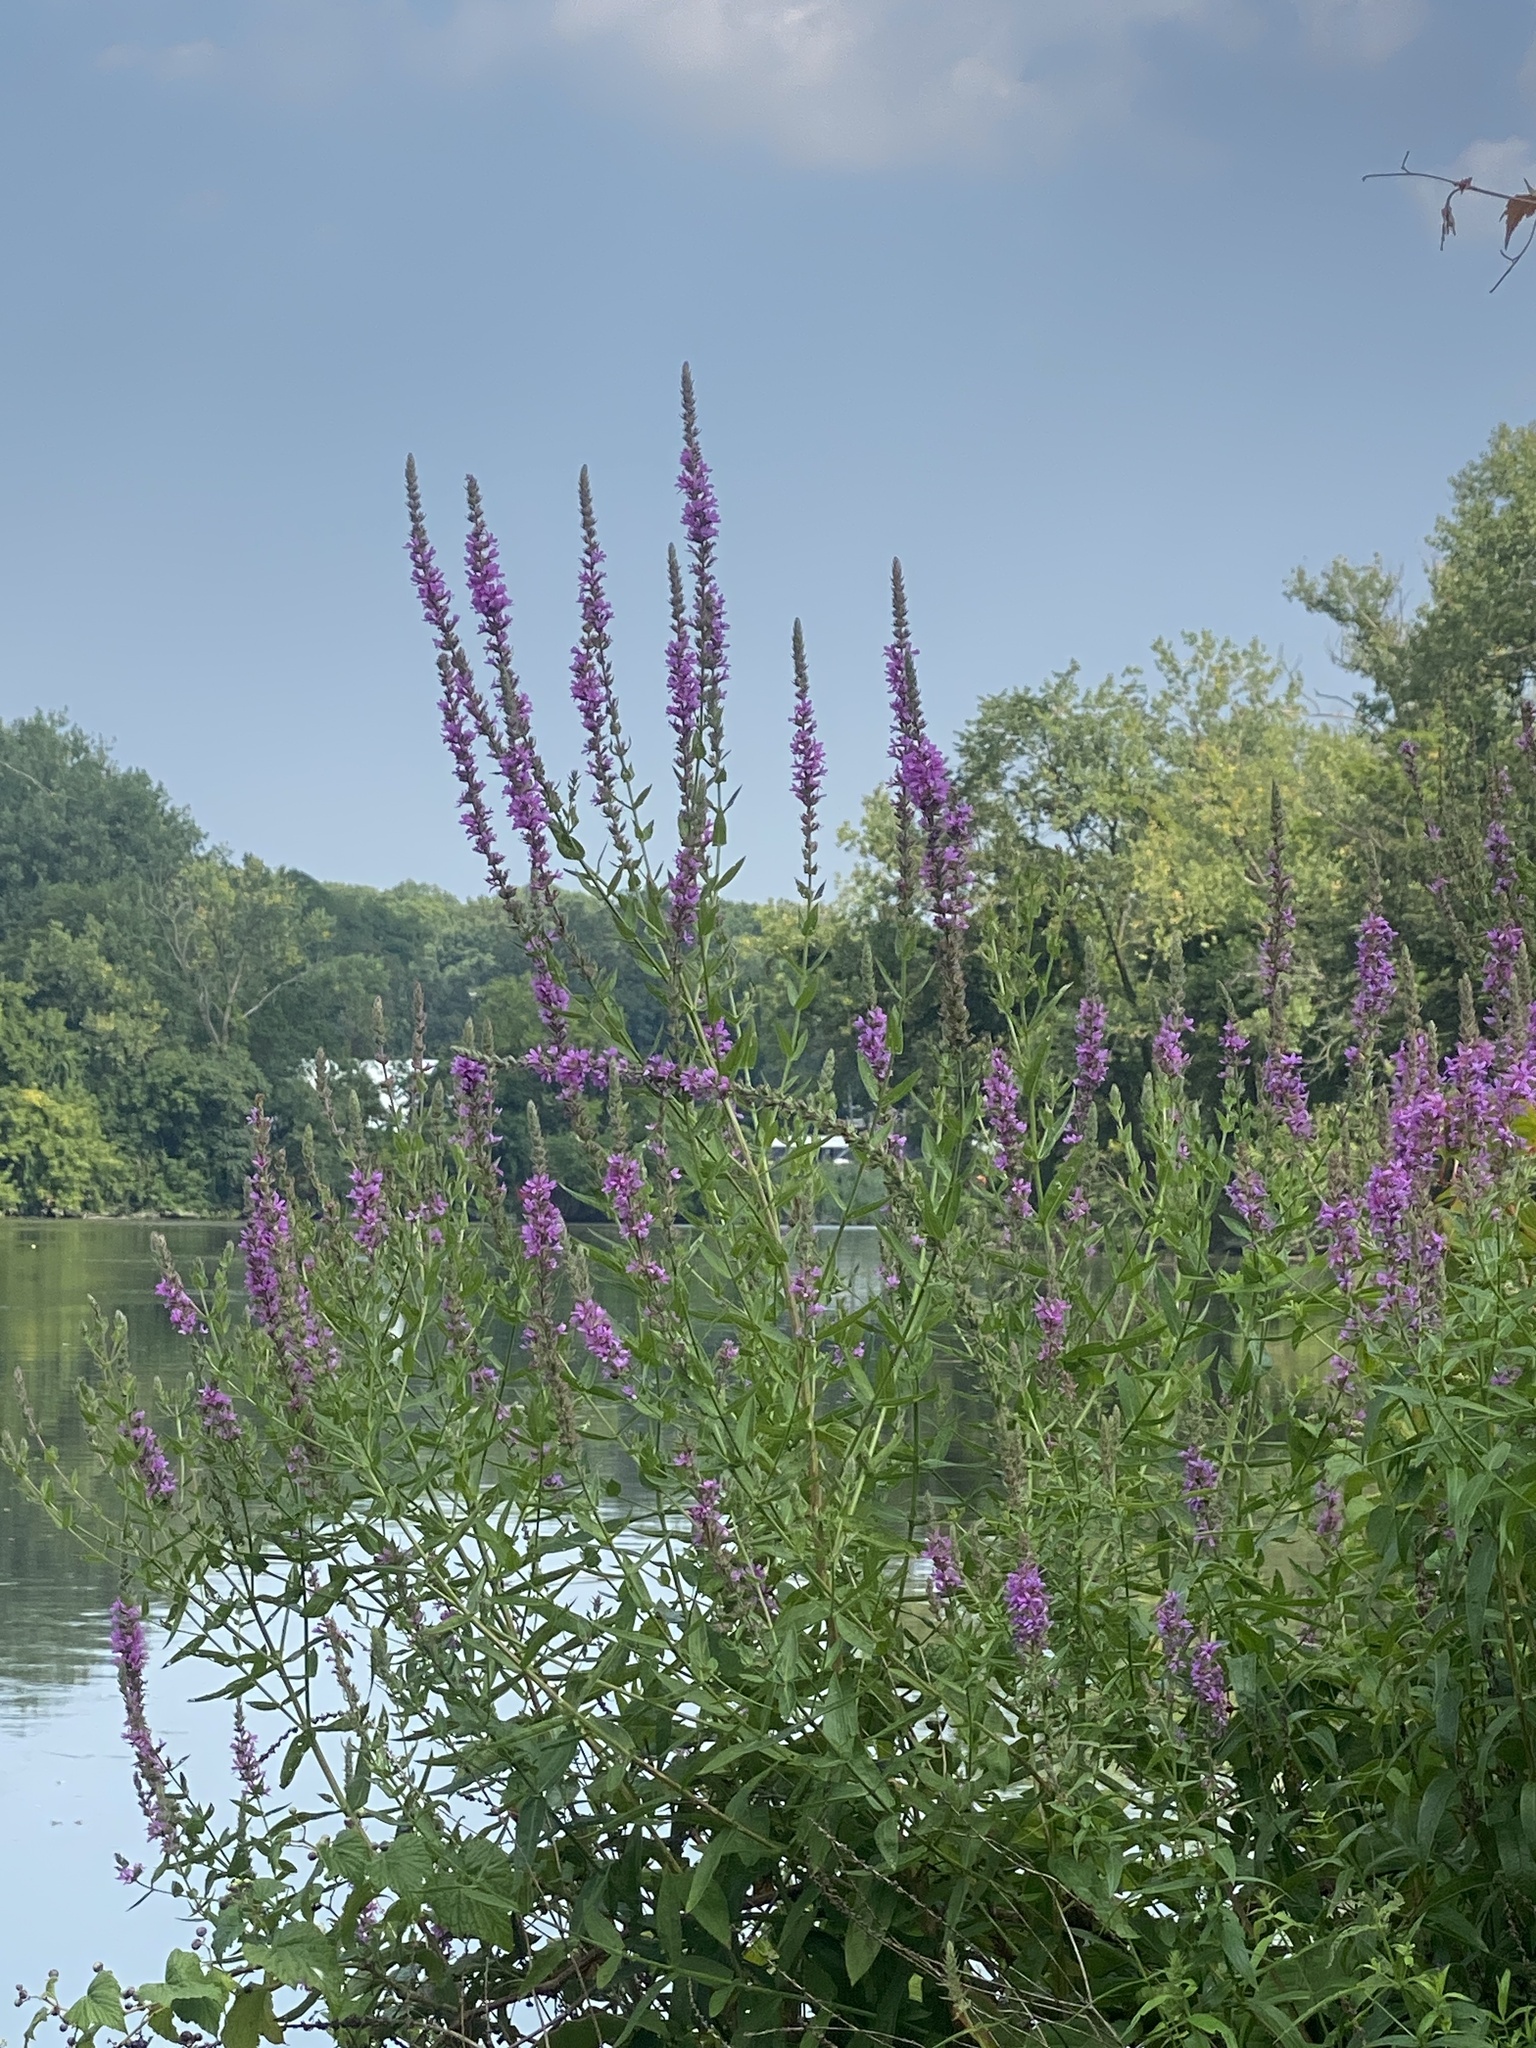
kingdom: Plantae
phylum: Tracheophyta
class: Magnoliopsida
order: Myrtales
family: Lythraceae
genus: Lythrum
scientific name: Lythrum salicaria
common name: Purple loosestrife
